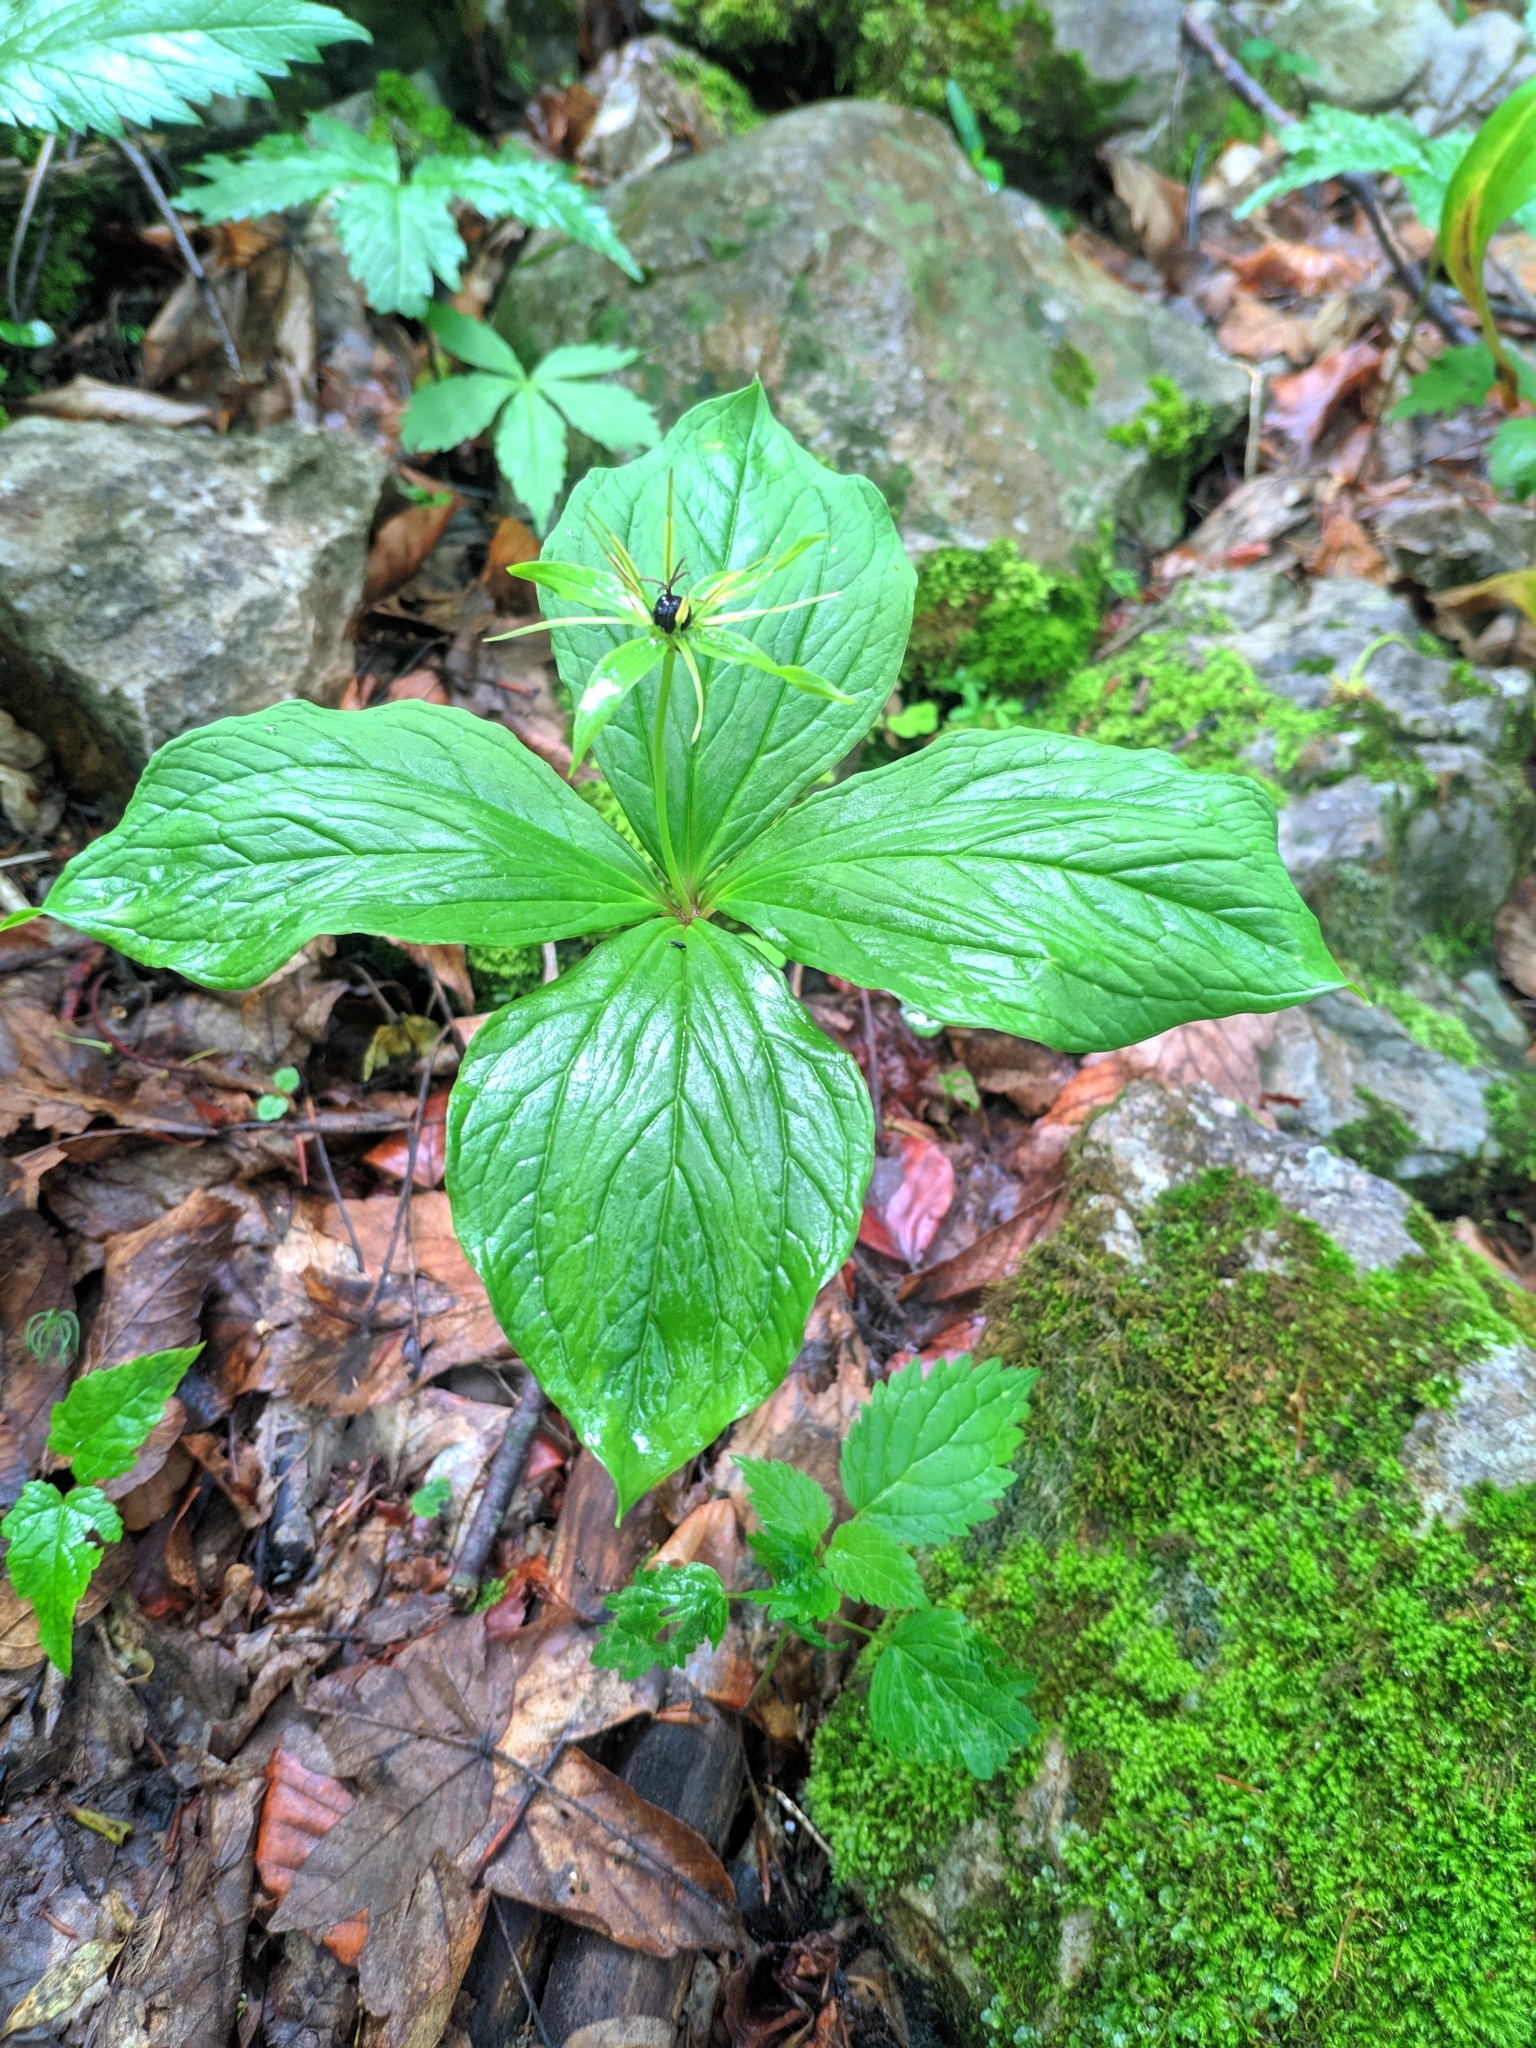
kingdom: Plantae
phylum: Tracheophyta
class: Liliopsida
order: Liliales
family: Melanthiaceae
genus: Paris
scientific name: Paris quadrifolia
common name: Herb-paris
